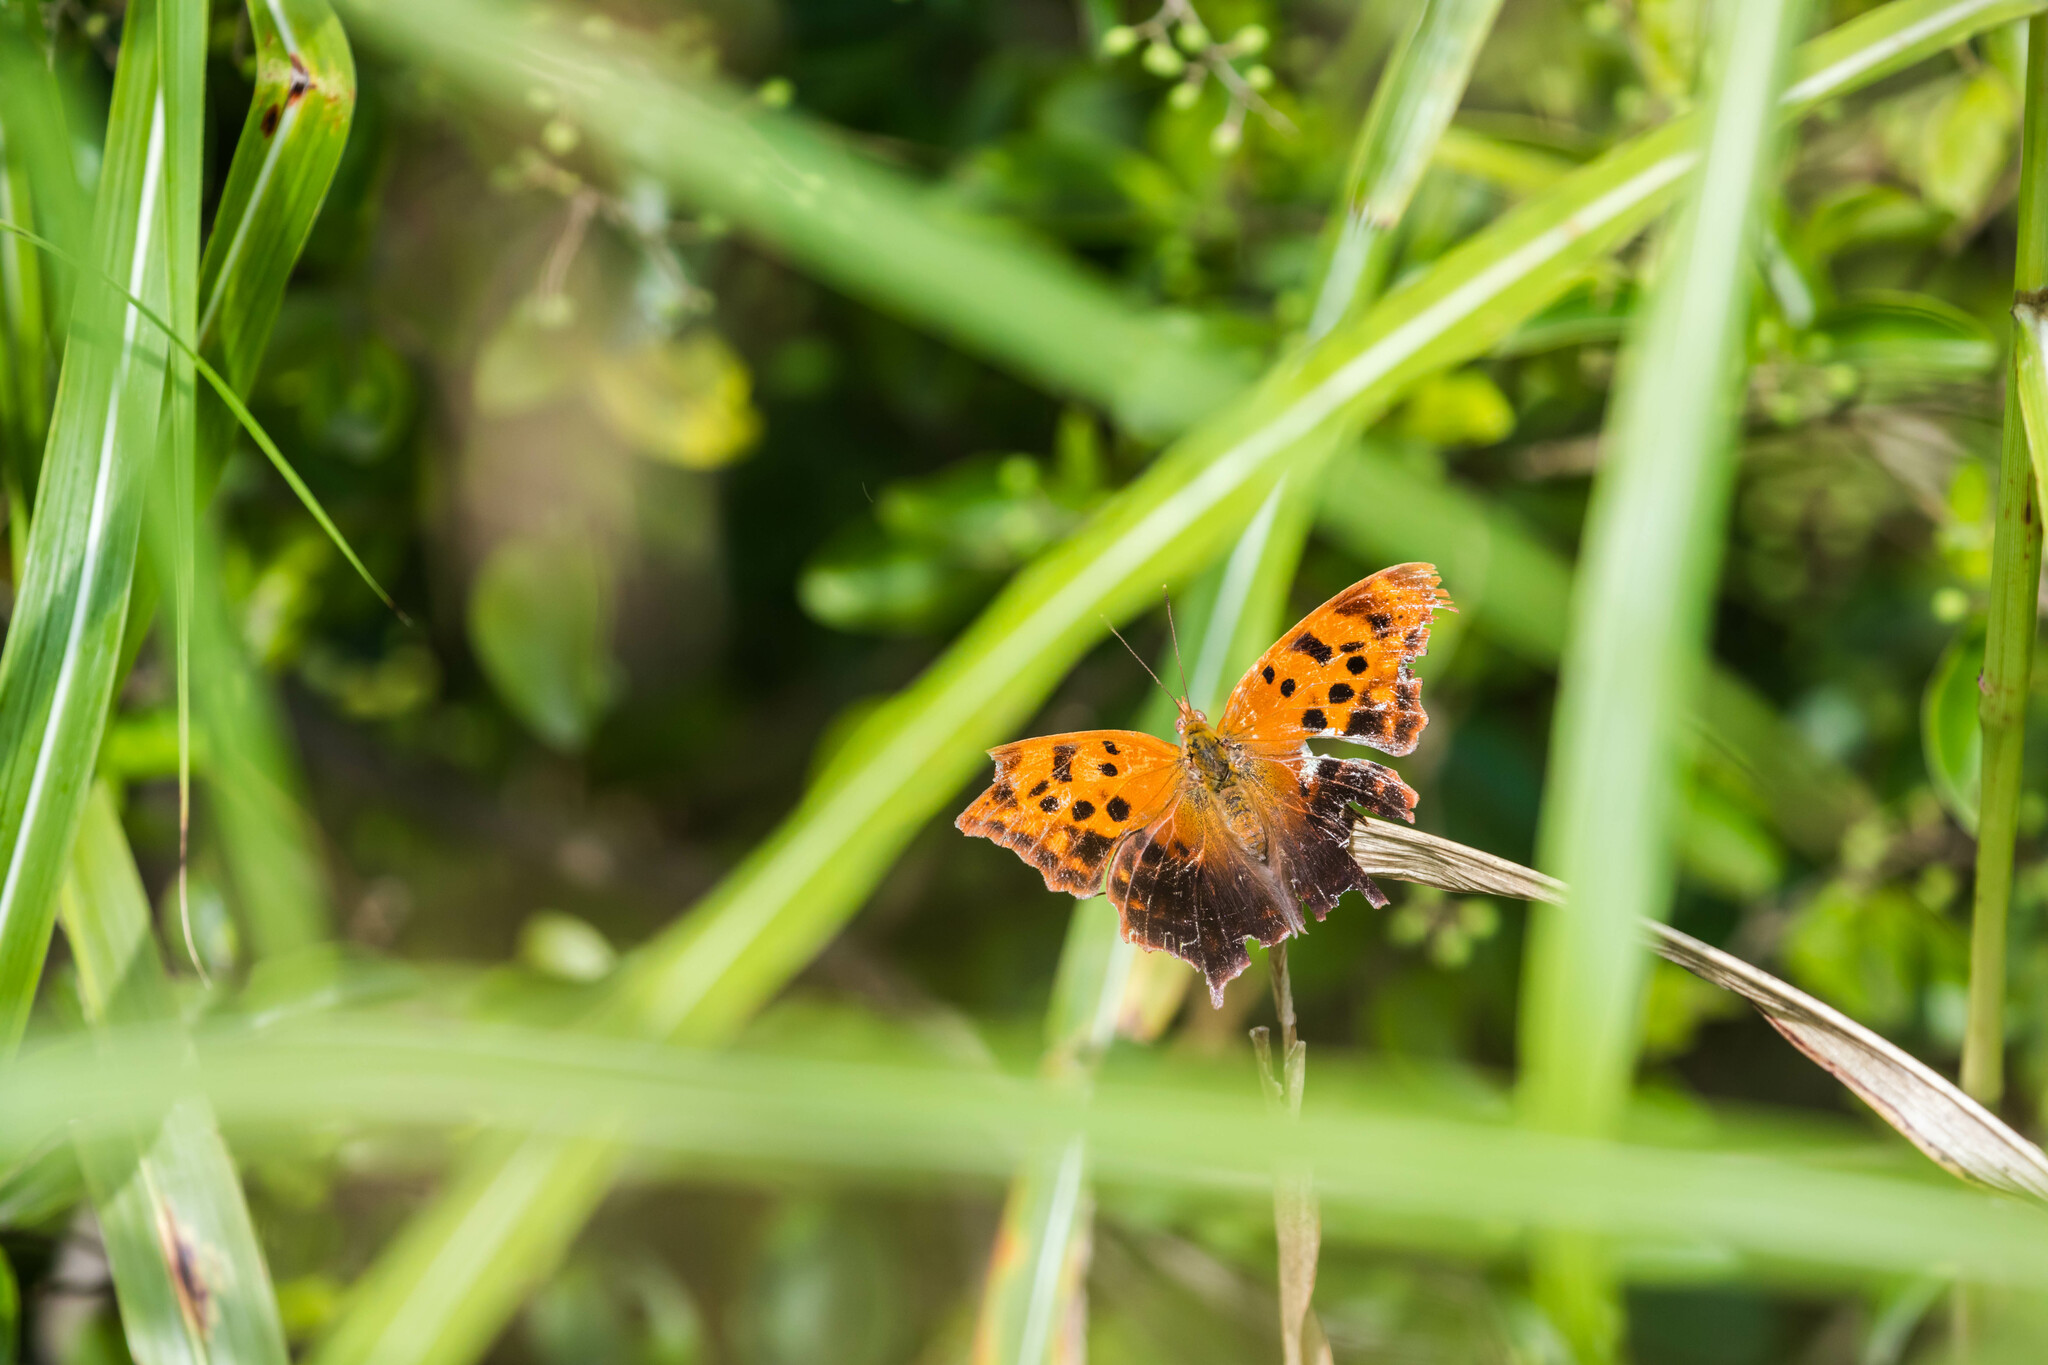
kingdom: Animalia
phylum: Arthropoda
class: Insecta
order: Lepidoptera
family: Nymphalidae
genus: Polygonia
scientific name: Polygonia interrogationis
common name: Question mark
